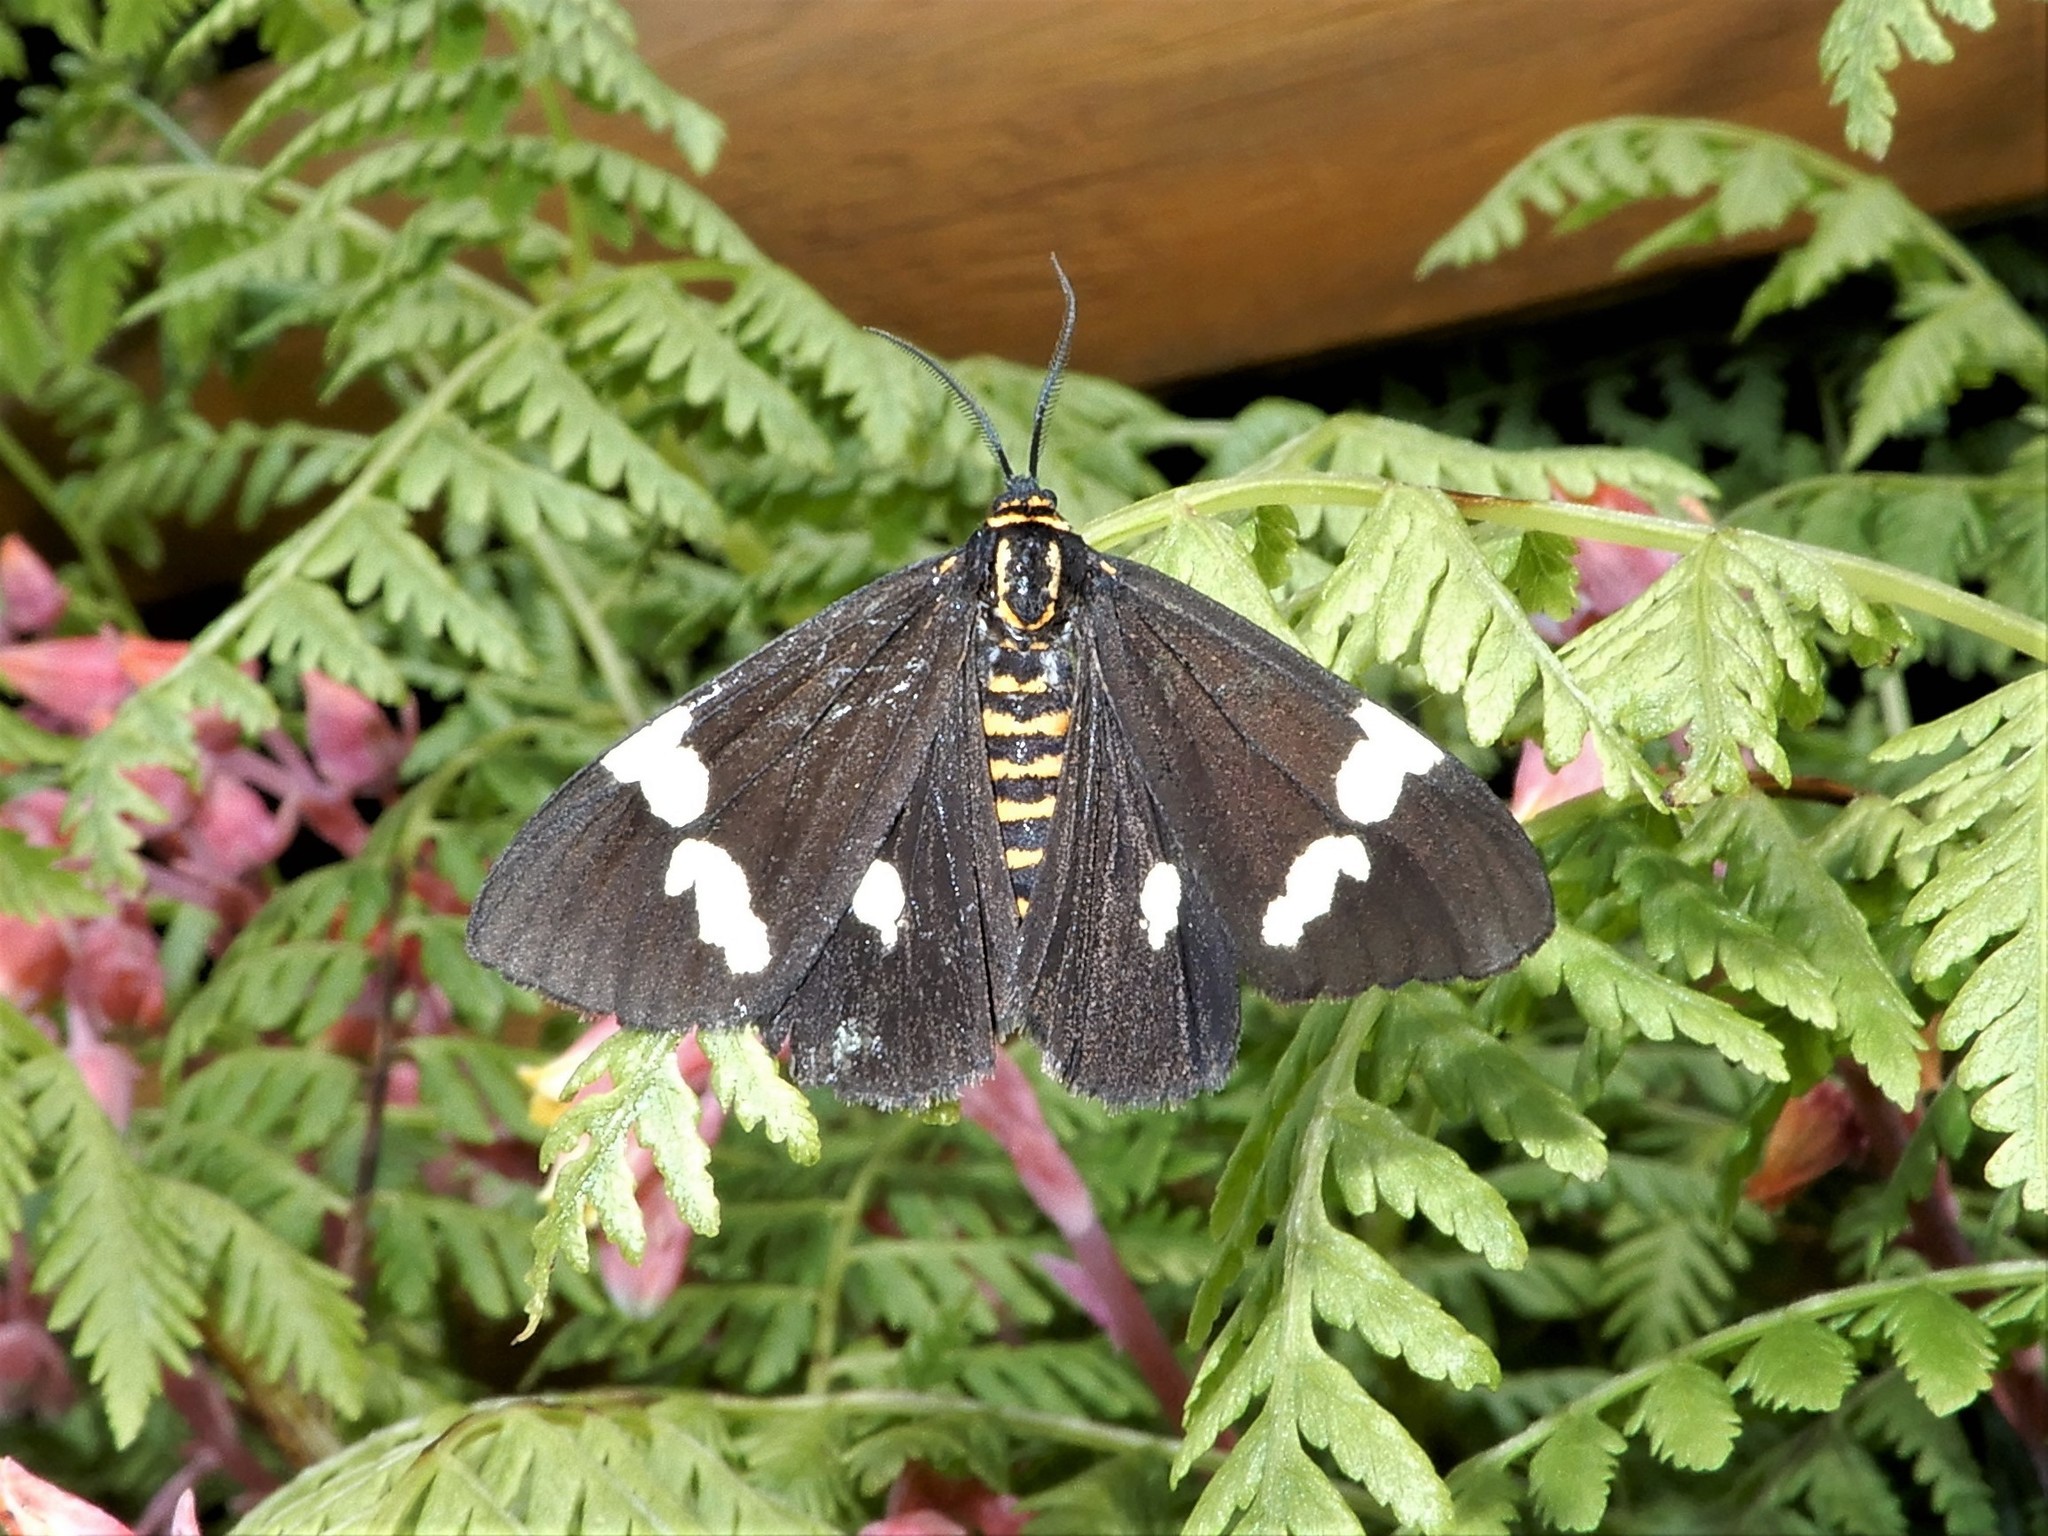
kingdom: Animalia
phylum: Arthropoda
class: Insecta
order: Lepidoptera
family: Erebidae
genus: Nyctemera
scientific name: Nyctemera annulatum
